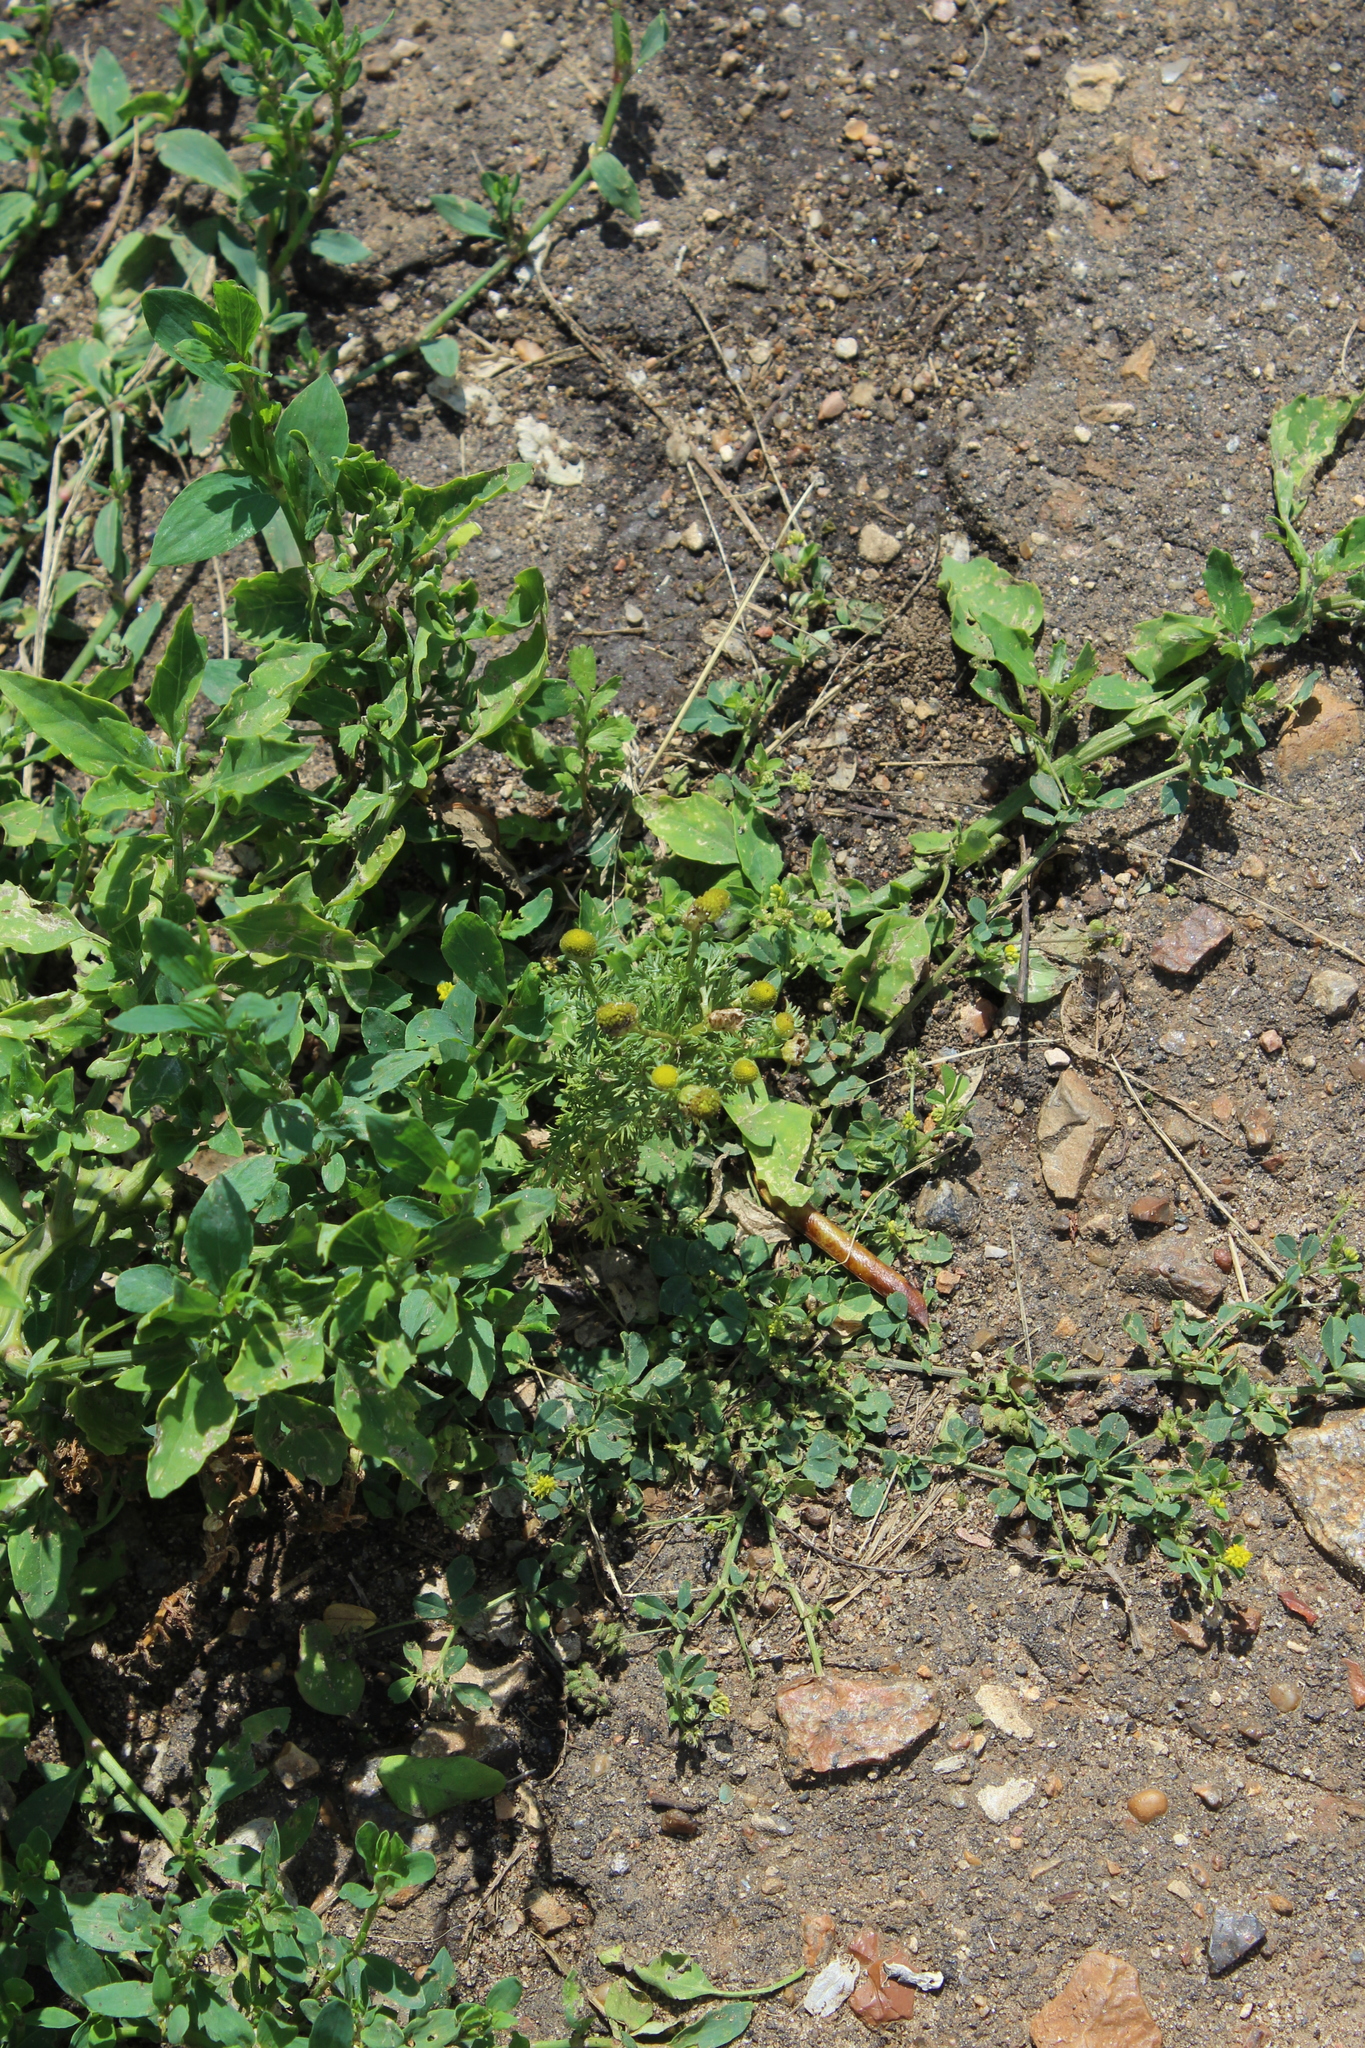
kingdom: Plantae
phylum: Tracheophyta
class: Magnoliopsida
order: Asterales
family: Asteraceae
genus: Matricaria
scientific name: Matricaria discoidea
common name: Disc mayweed
